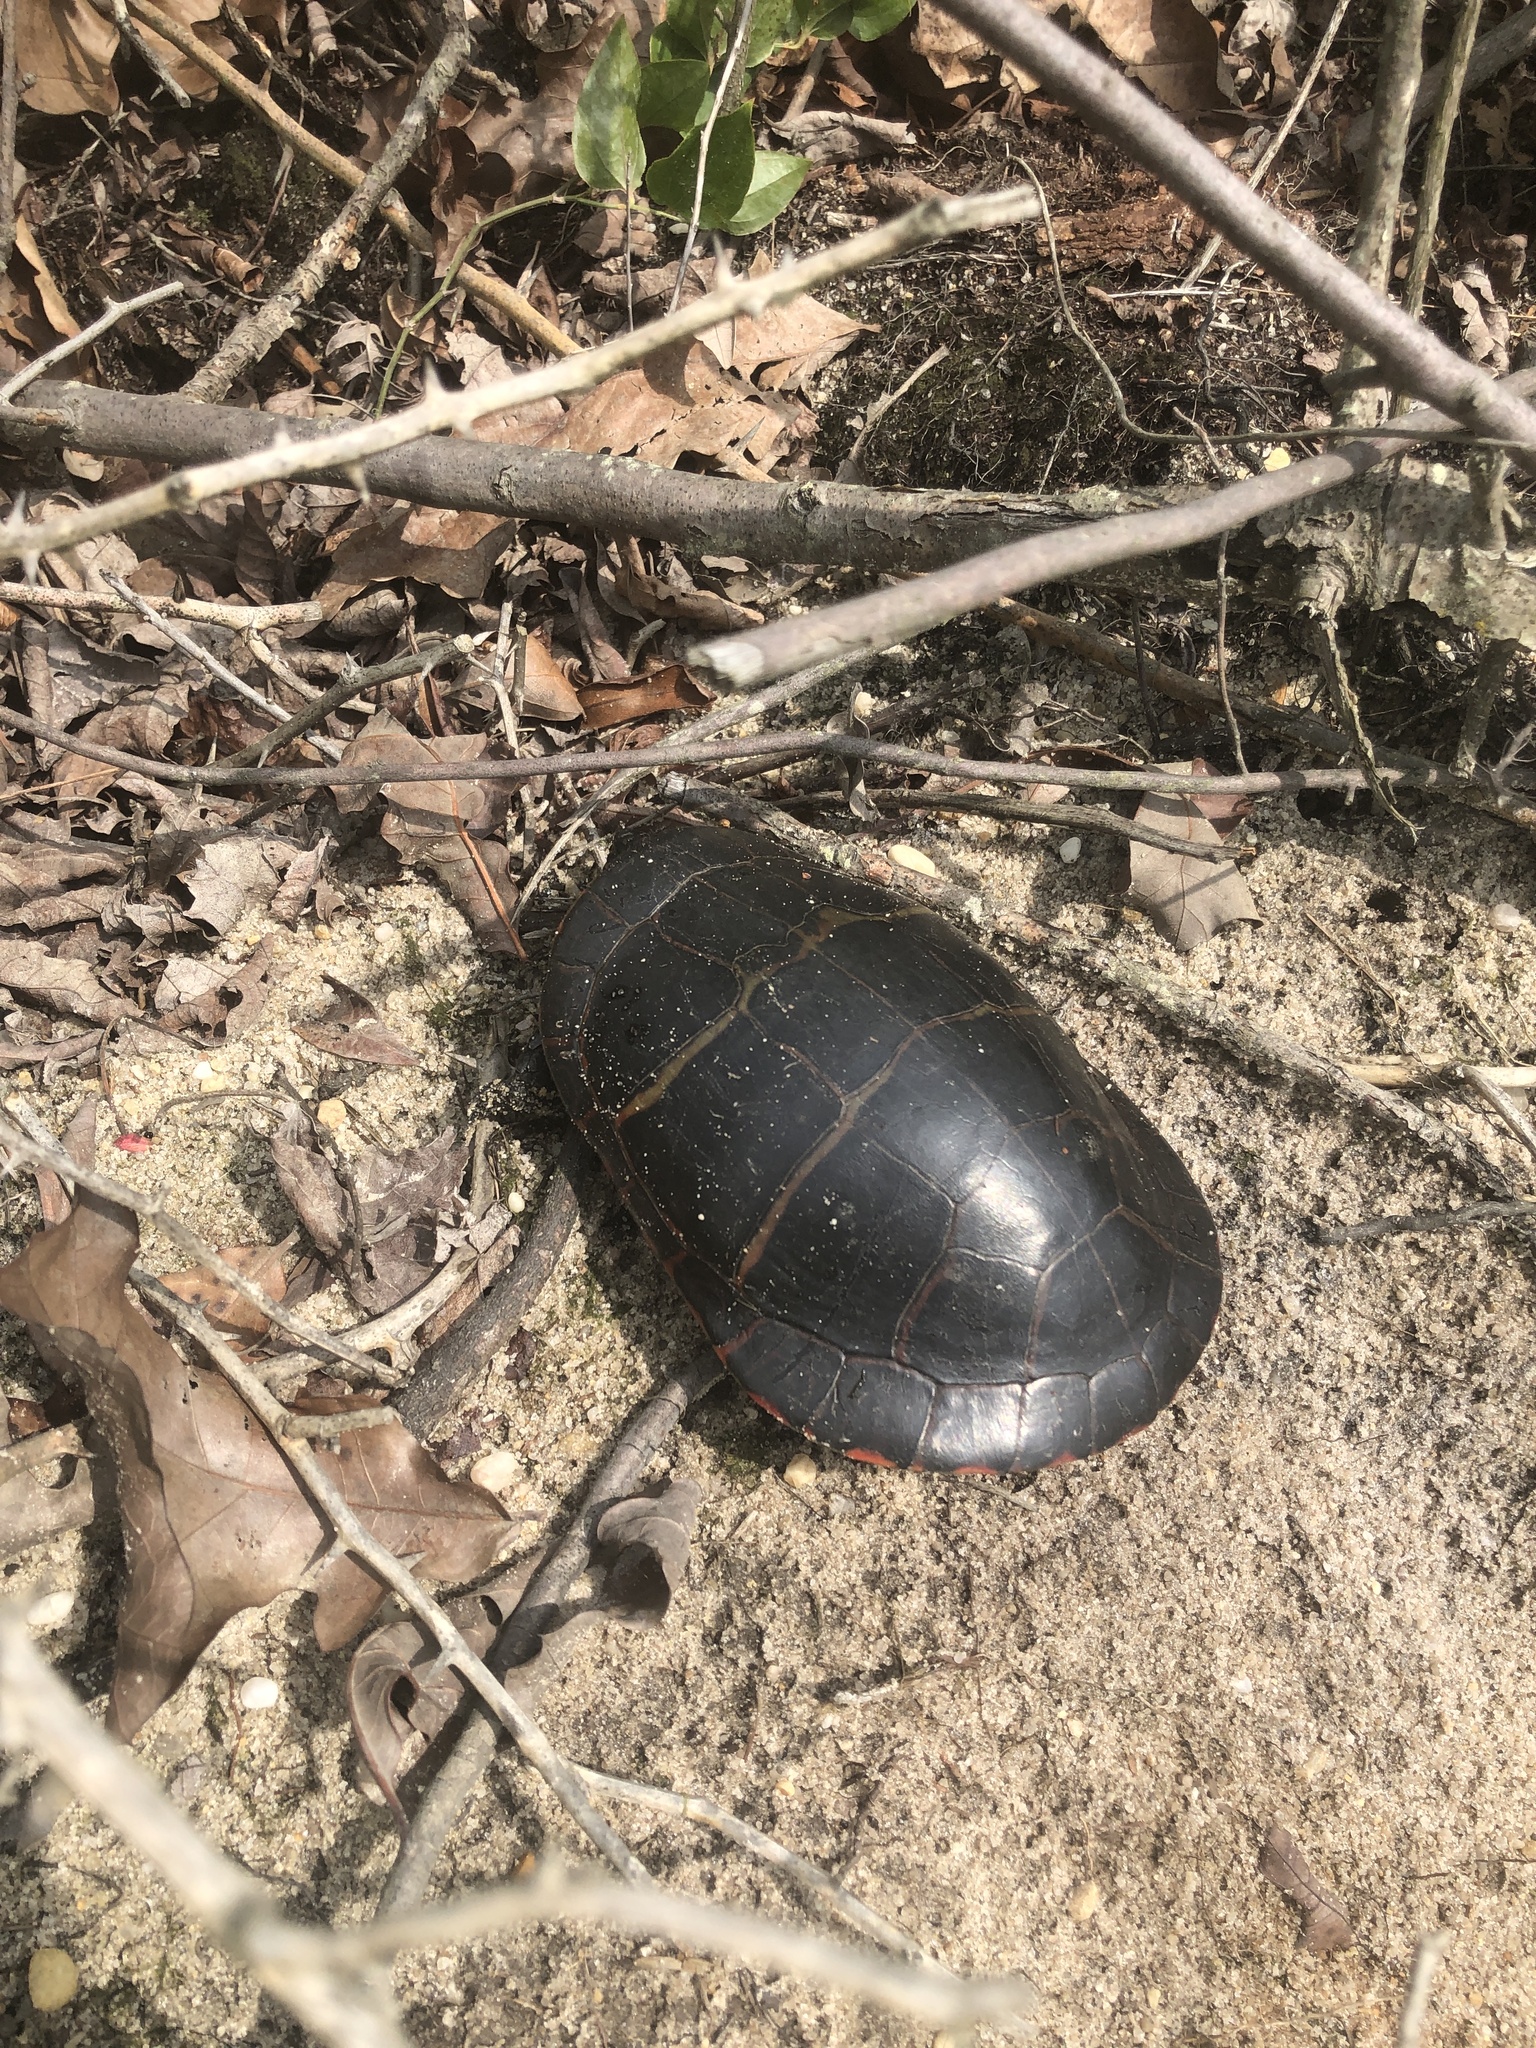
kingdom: Animalia
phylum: Chordata
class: Testudines
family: Emydidae
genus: Chrysemys
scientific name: Chrysemys picta
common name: Painted turtle
